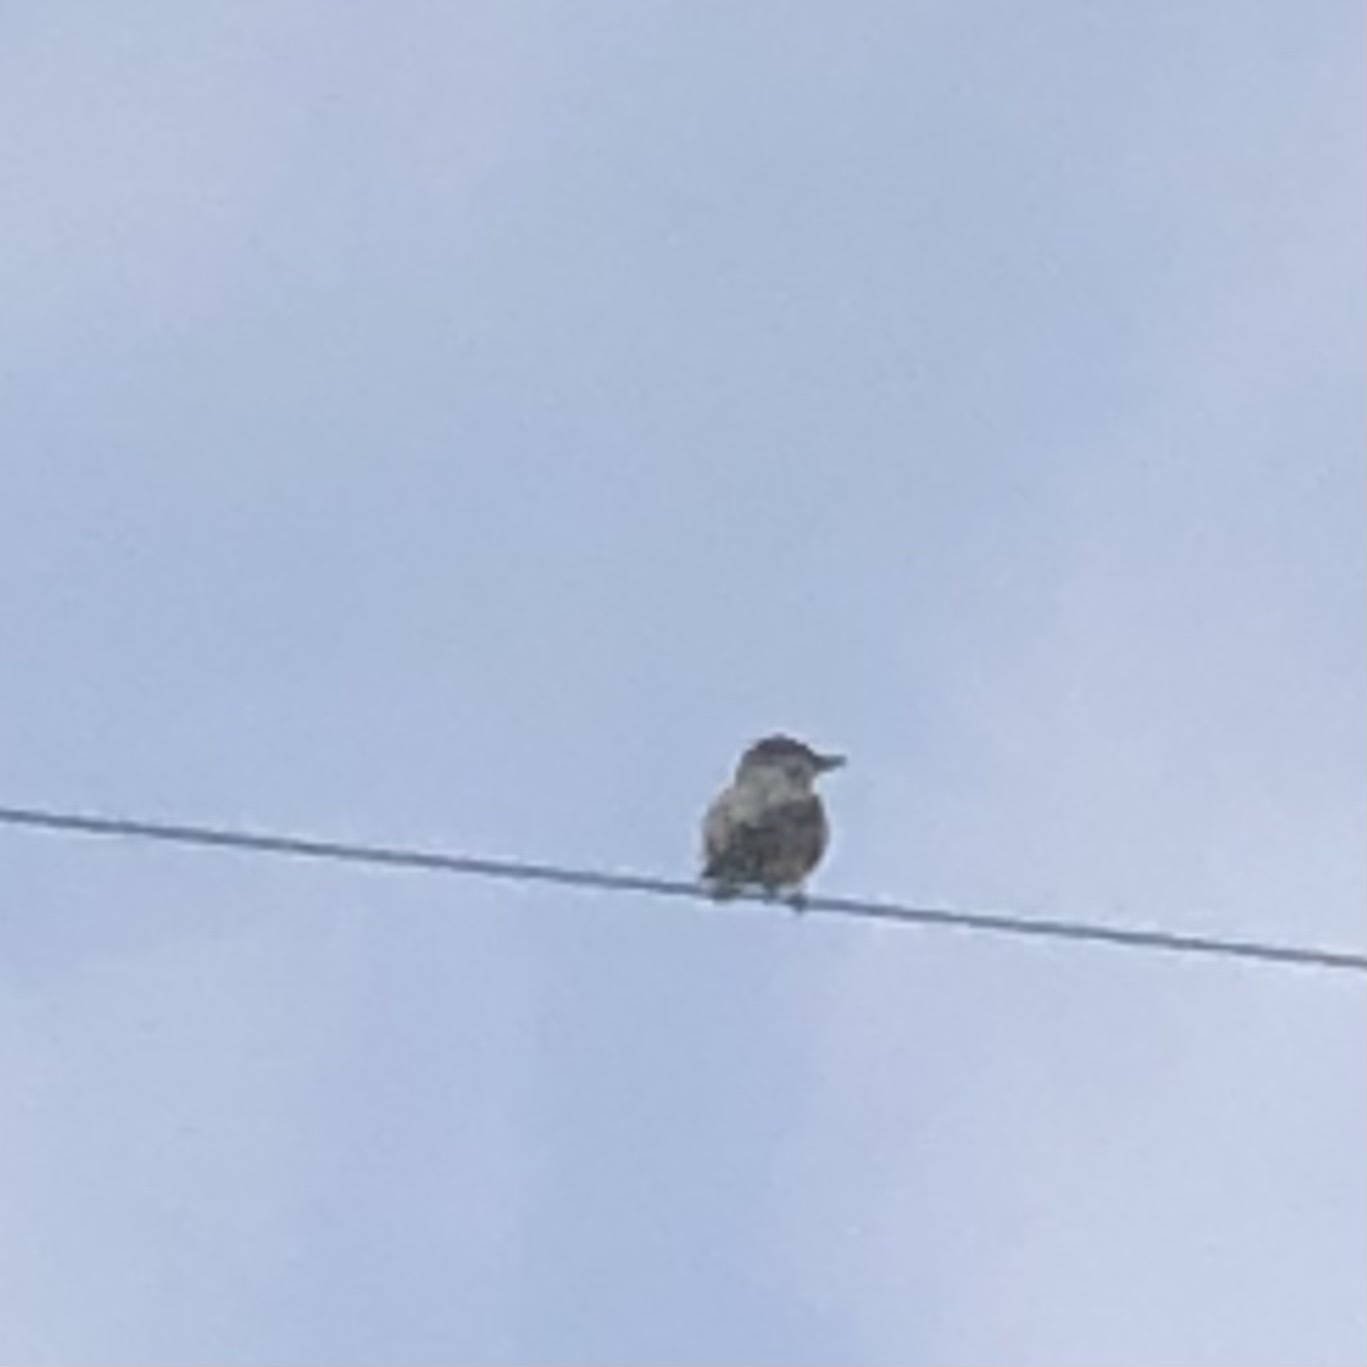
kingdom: Animalia
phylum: Chordata
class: Aves
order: Passeriformes
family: Tyrannidae
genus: Tyrannus
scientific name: Tyrannus
